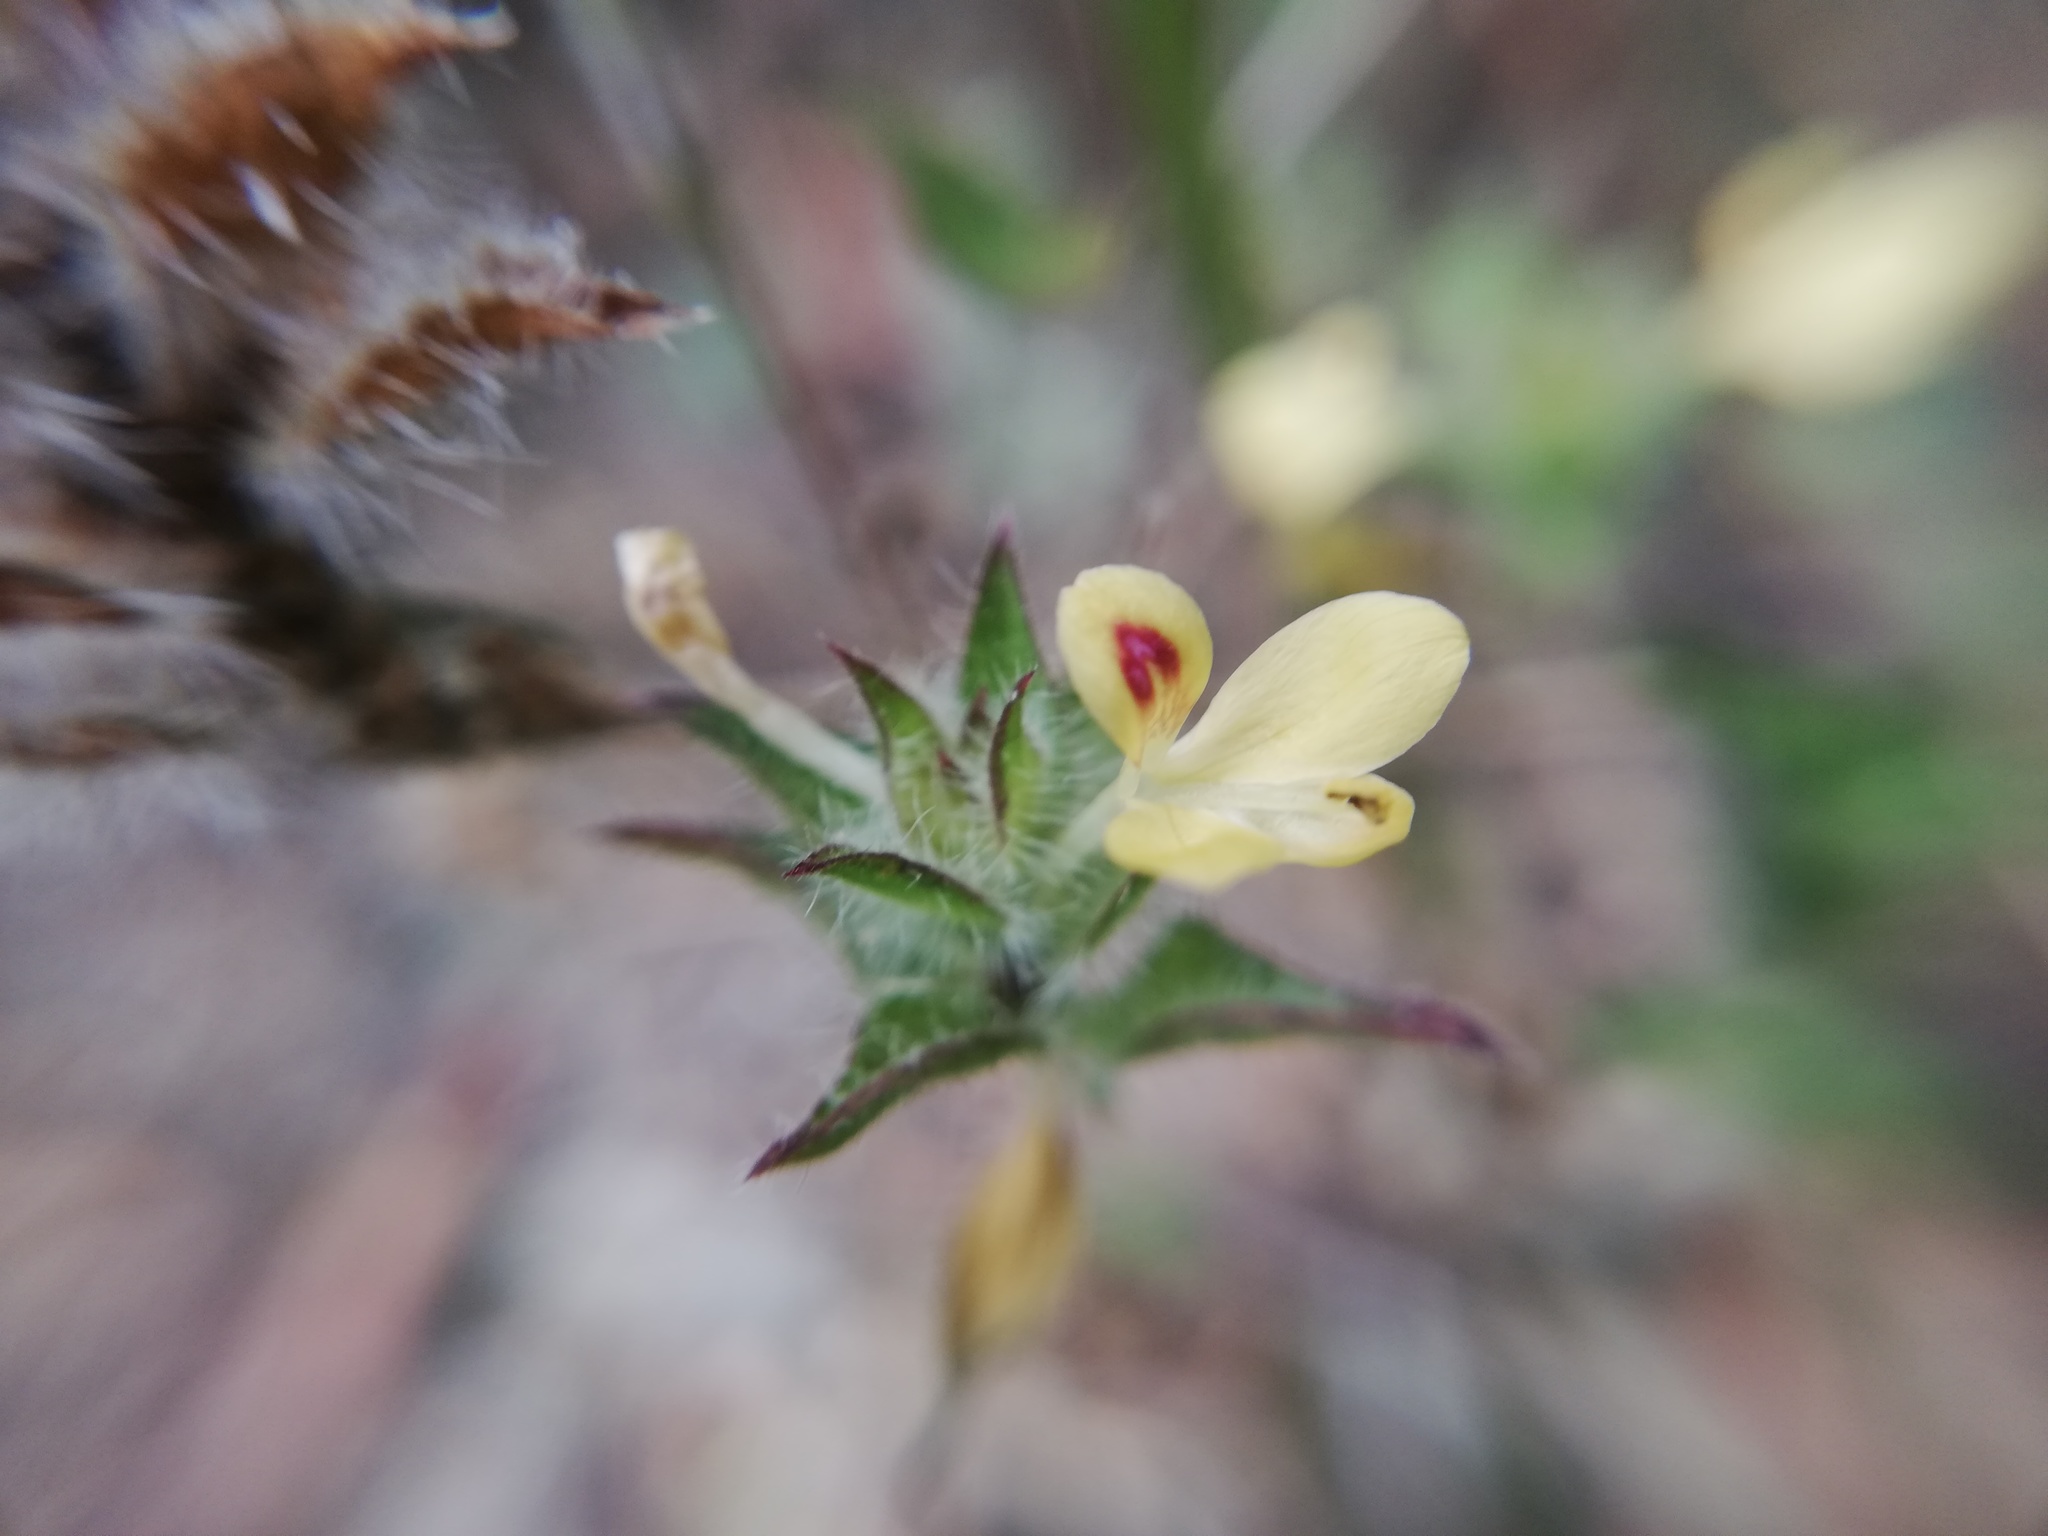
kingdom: Plantae
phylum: Tracheophyta
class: Magnoliopsida
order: Lamiales
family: Acanthaceae
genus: Tetramerium
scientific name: Tetramerium nervosum
